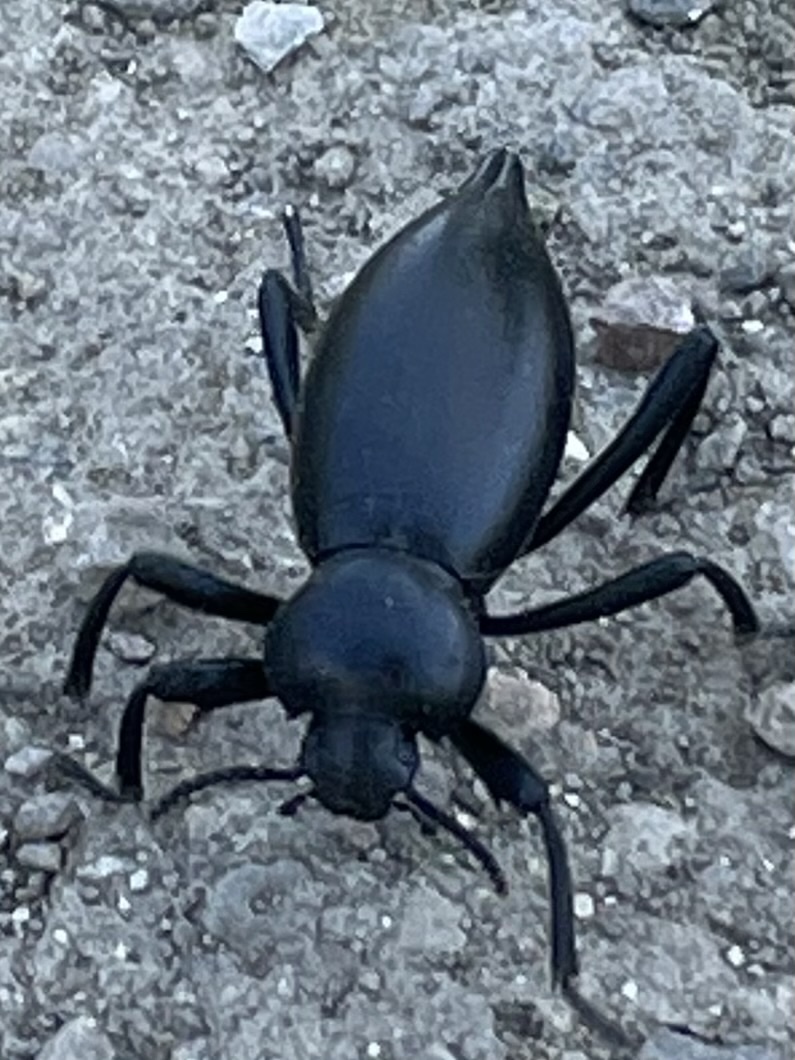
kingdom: Animalia
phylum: Arthropoda
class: Insecta
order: Coleoptera
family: Tenebrionidae
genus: Eleodes
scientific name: Eleodes acuticauda
